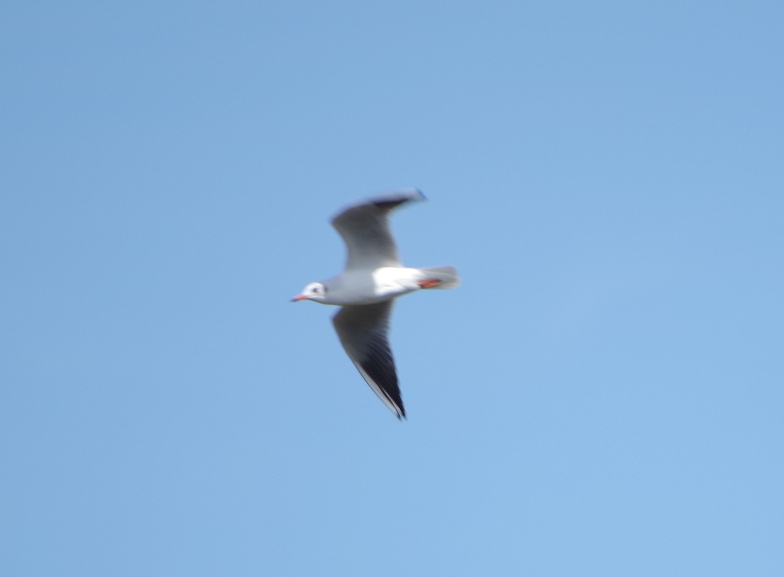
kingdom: Animalia
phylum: Chordata
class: Aves
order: Charadriiformes
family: Laridae
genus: Chroicocephalus
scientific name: Chroicocephalus ridibundus
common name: Black-headed gull
